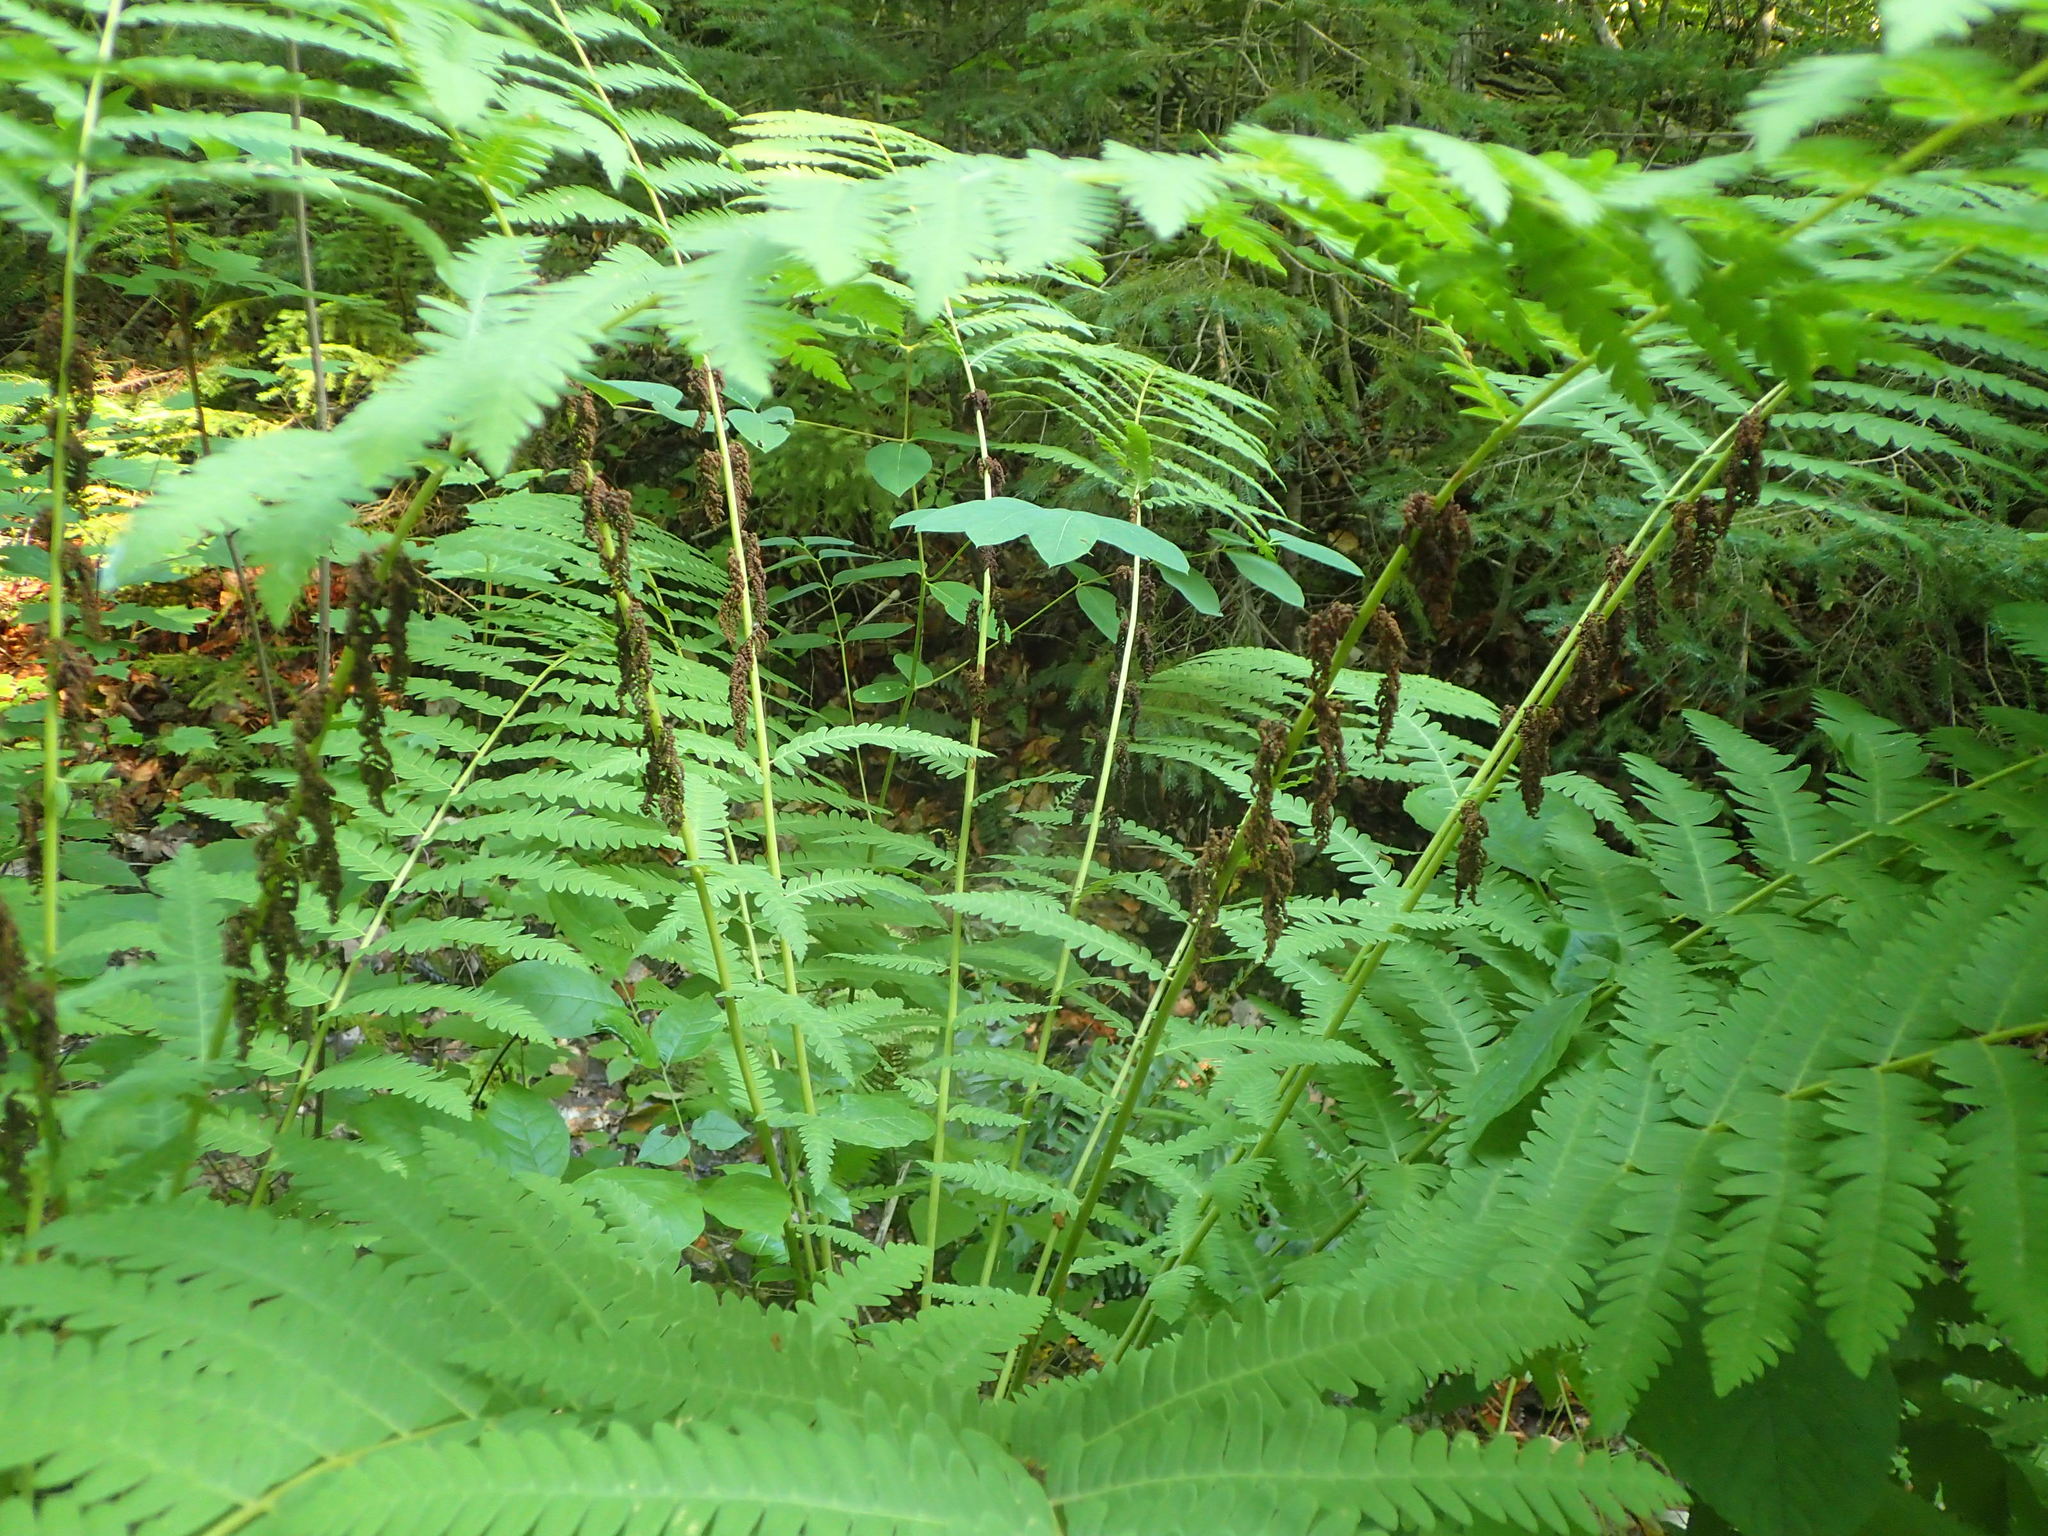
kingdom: Plantae
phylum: Tracheophyta
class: Polypodiopsida
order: Osmundales
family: Osmundaceae
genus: Claytosmunda
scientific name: Claytosmunda claytoniana
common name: Clayton's fern
